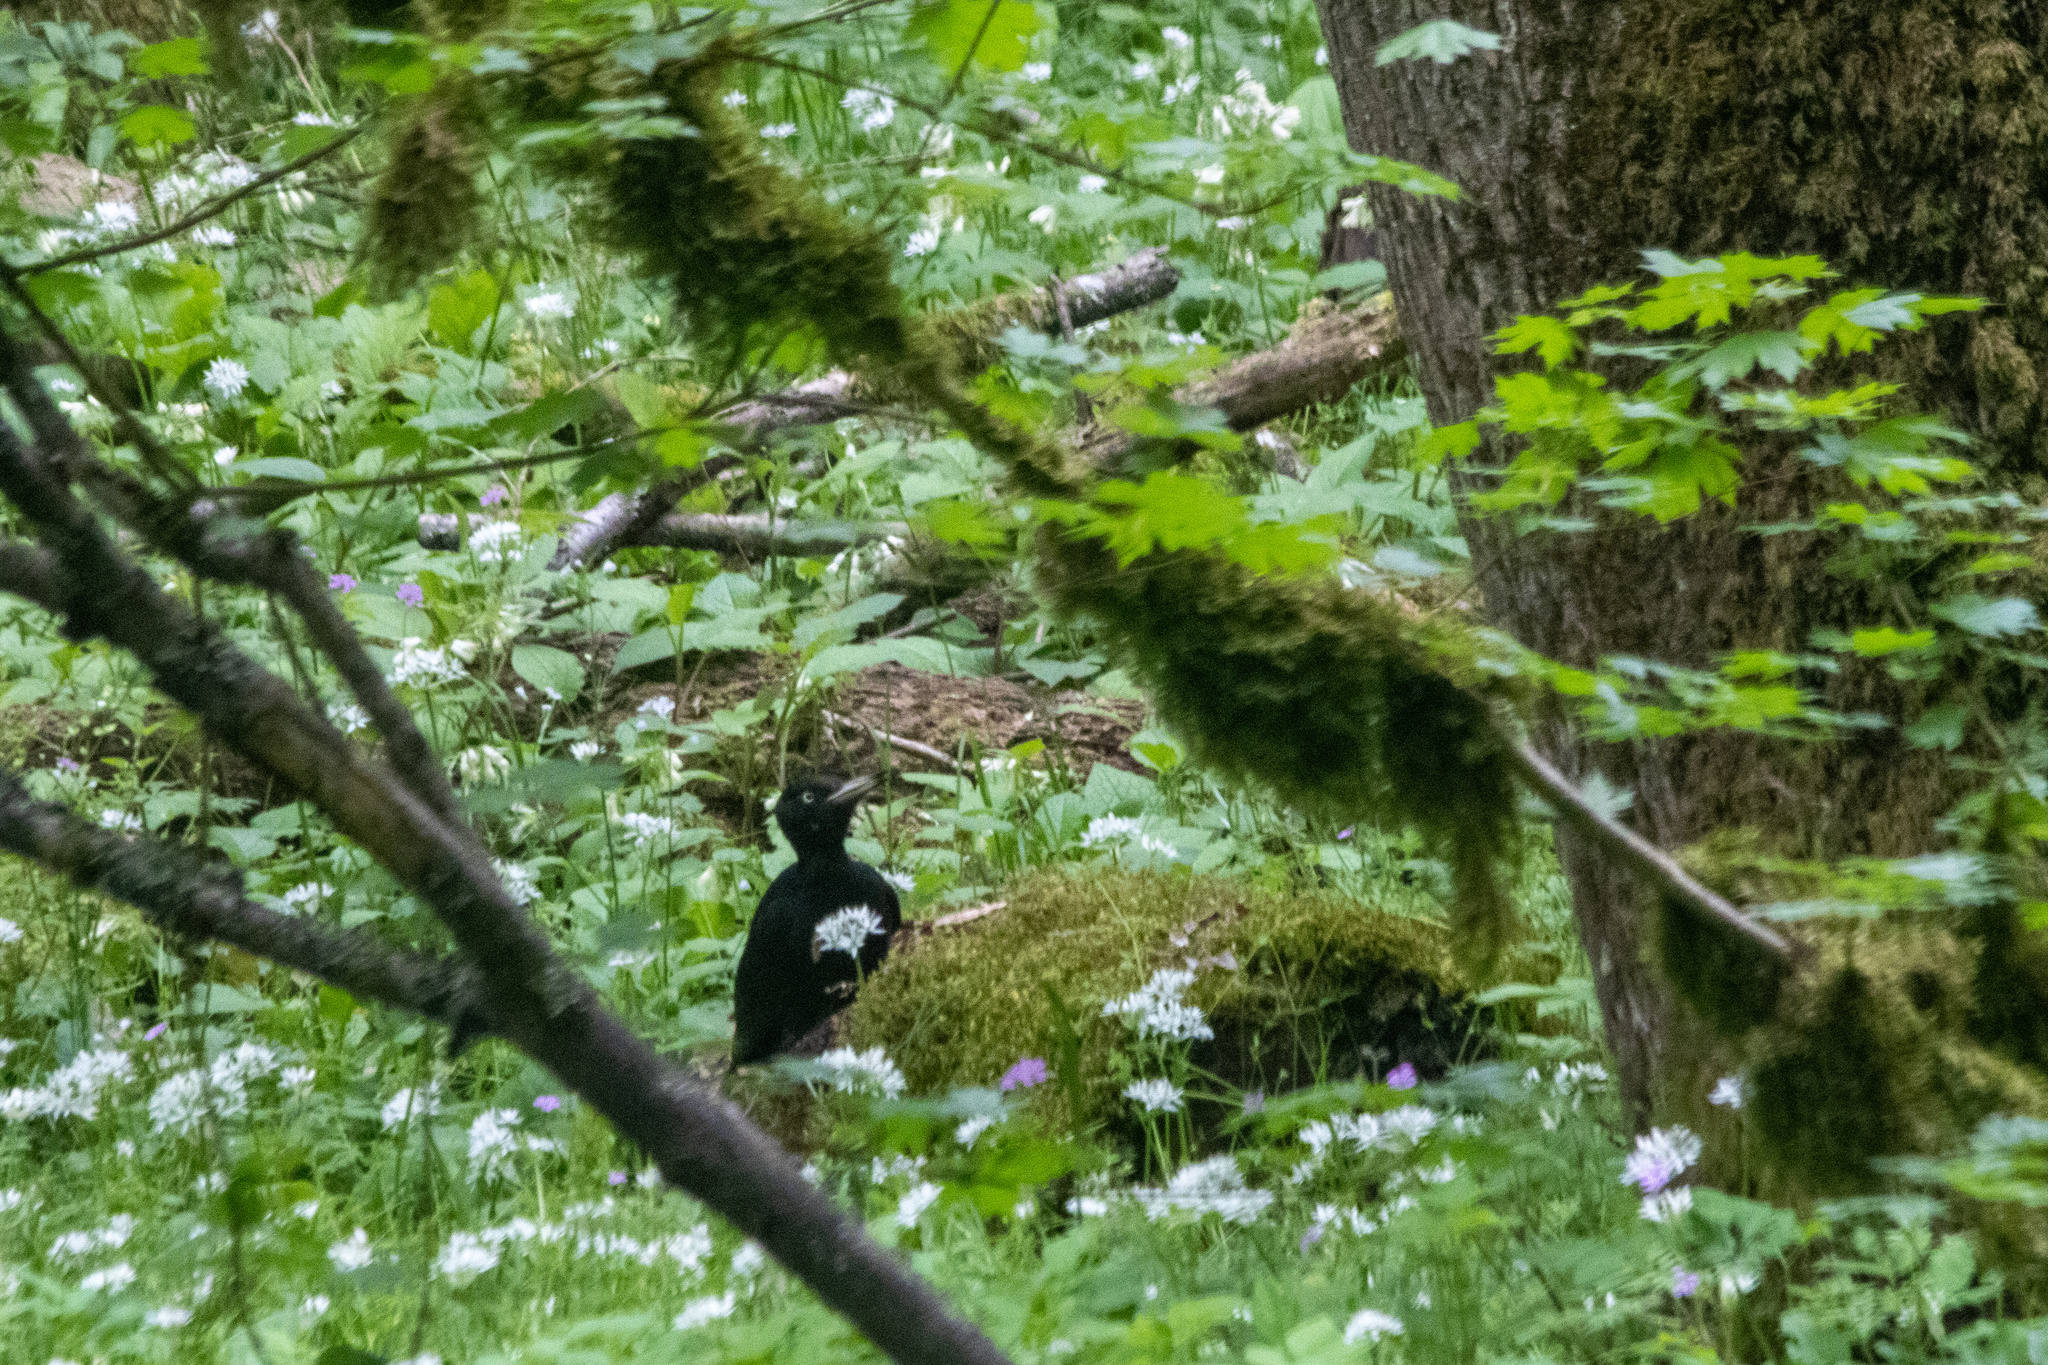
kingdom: Animalia
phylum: Chordata
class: Aves
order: Piciformes
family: Picidae
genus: Dryocopus
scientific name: Dryocopus martius
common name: Black woodpecker
